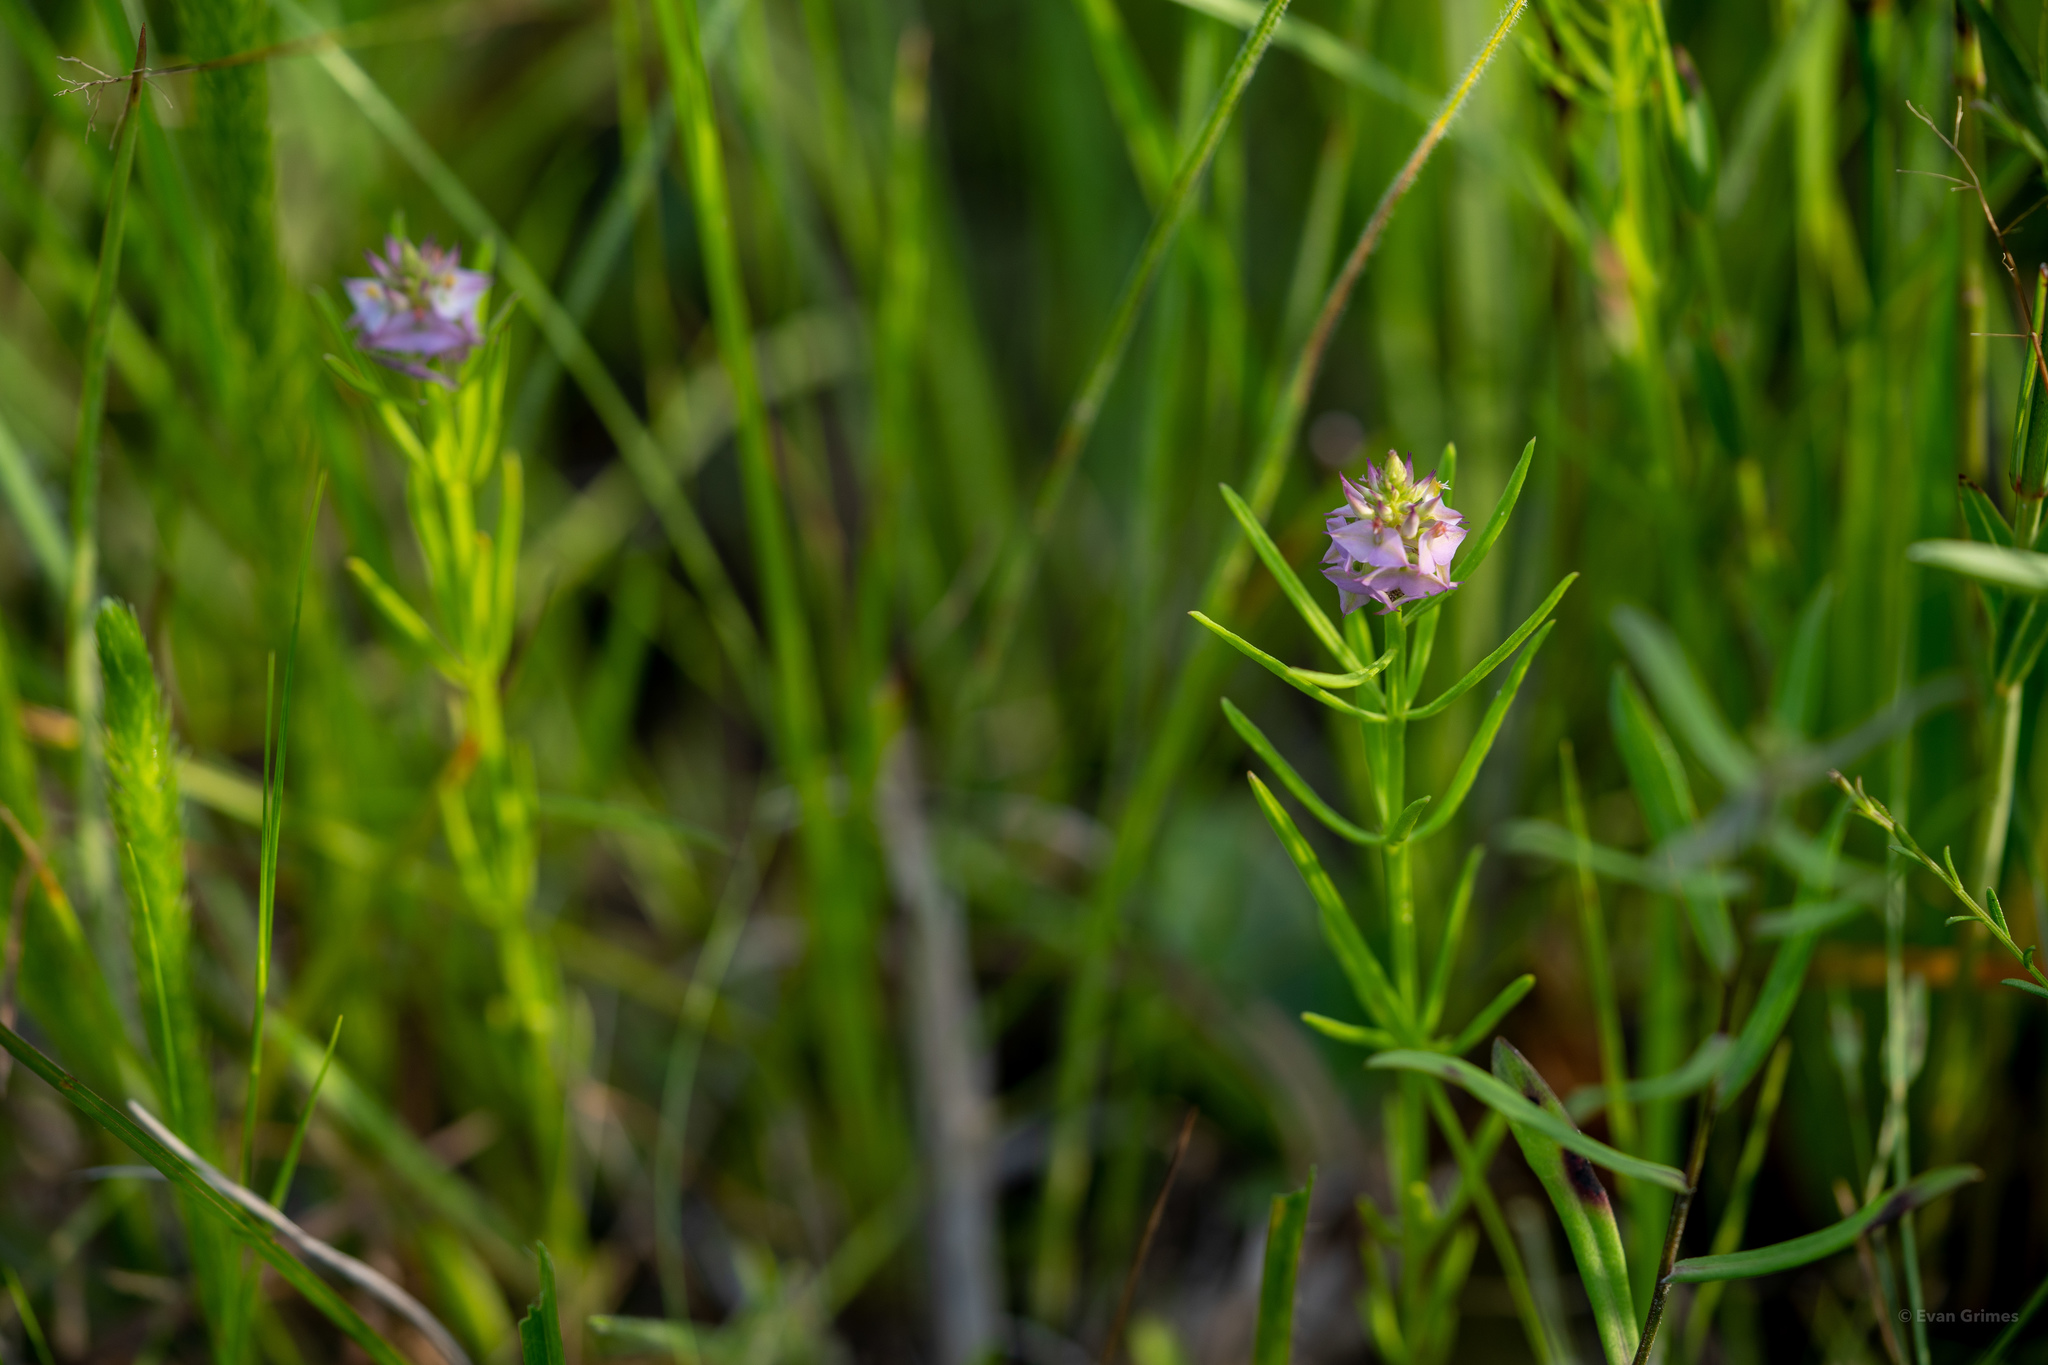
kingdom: Plantae
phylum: Tracheophyta
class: Magnoliopsida
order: Fabales
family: Polygalaceae
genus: Polygala
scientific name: Polygala cruciata
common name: Drumheads
